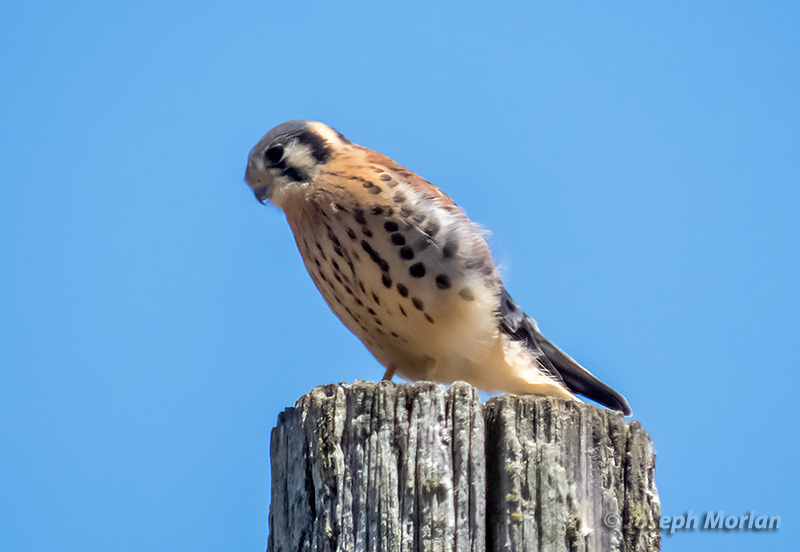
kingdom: Animalia
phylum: Chordata
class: Aves
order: Falconiformes
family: Falconidae
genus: Falco
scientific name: Falco sparverius
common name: American kestrel
